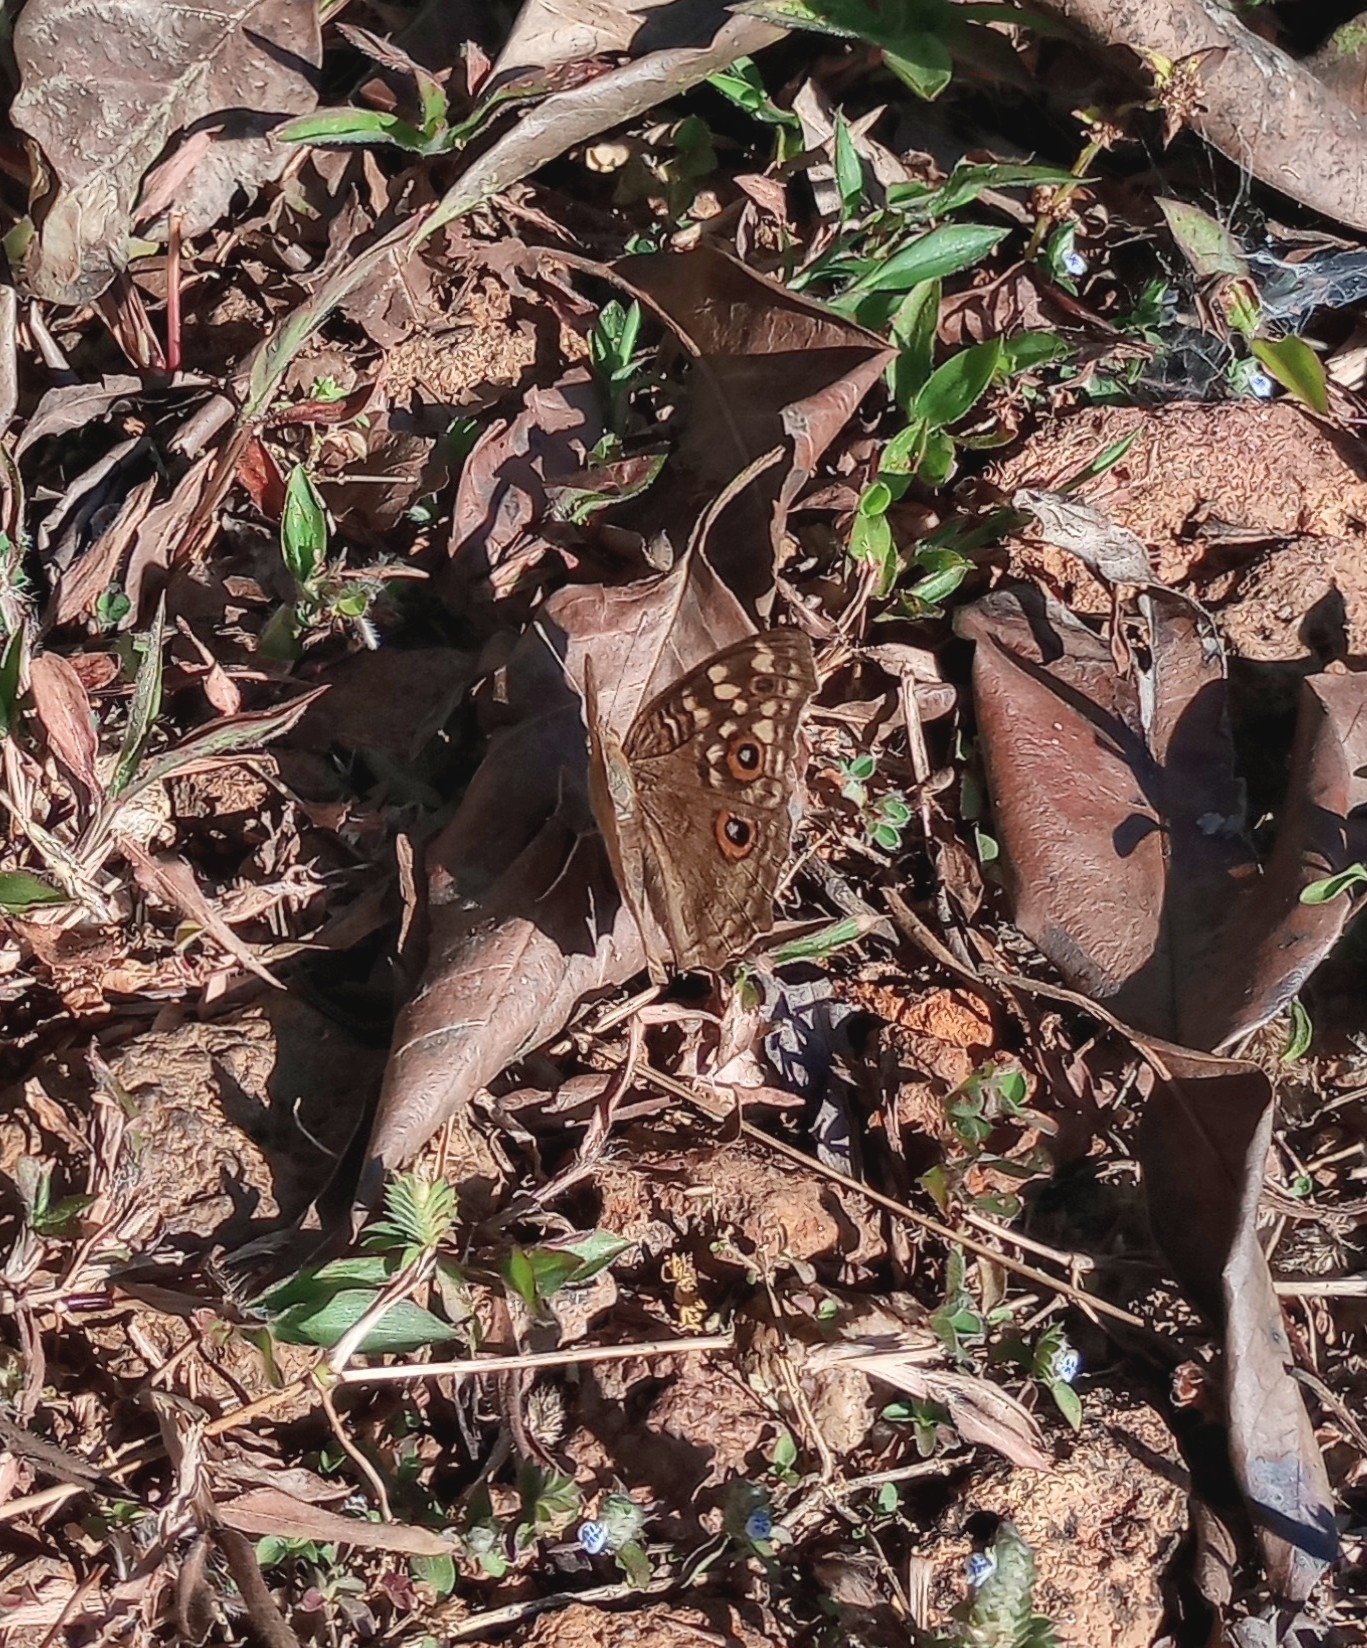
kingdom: Animalia
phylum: Arthropoda
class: Insecta
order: Lepidoptera
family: Nymphalidae
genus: Junonia
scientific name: Junonia lemonias
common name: Lemon pansy
